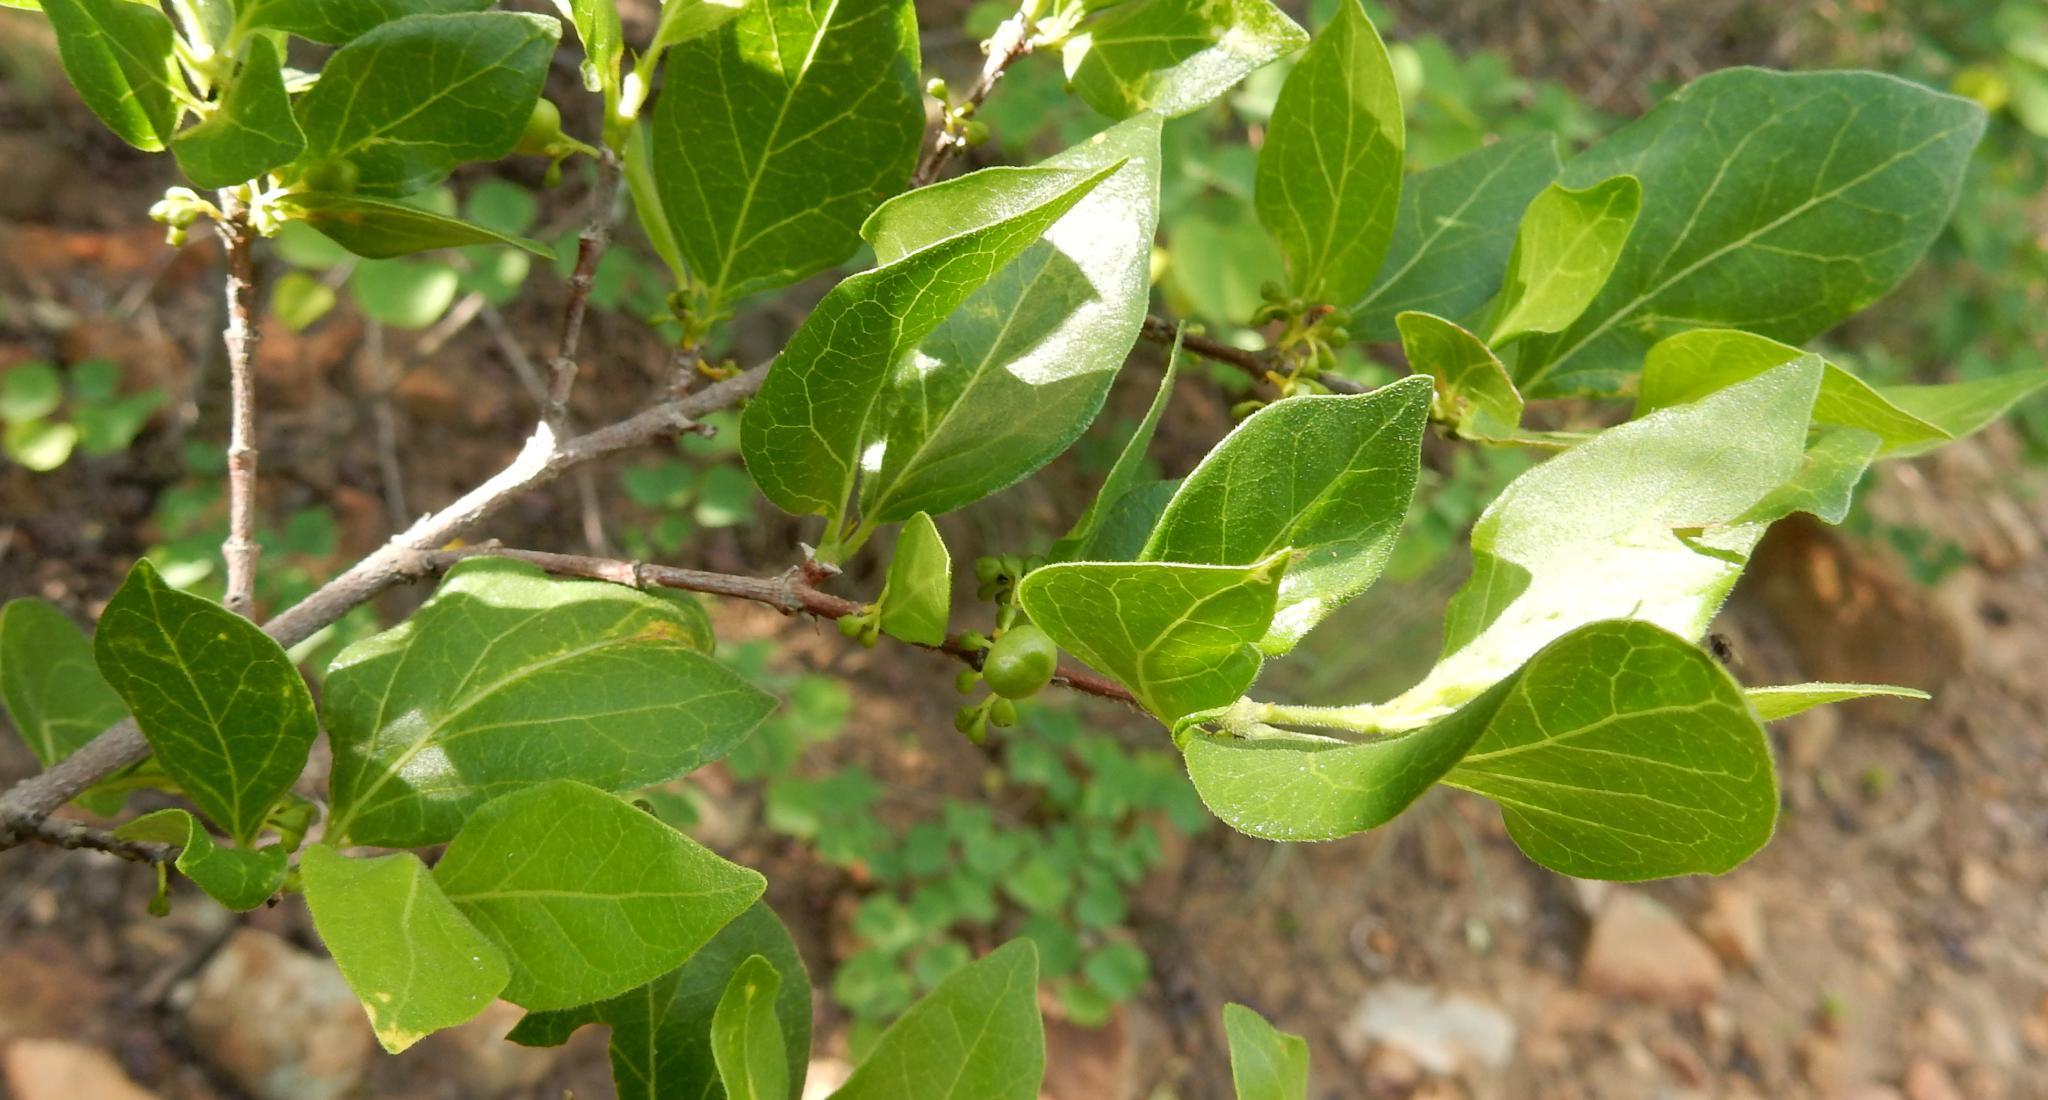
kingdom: Plantae
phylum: Tracheophyta
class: Magnoliopsida
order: Gentianales
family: Rubiaceae
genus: Afrocanthium
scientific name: Afrocanthium mundianum
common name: Rock-alder
